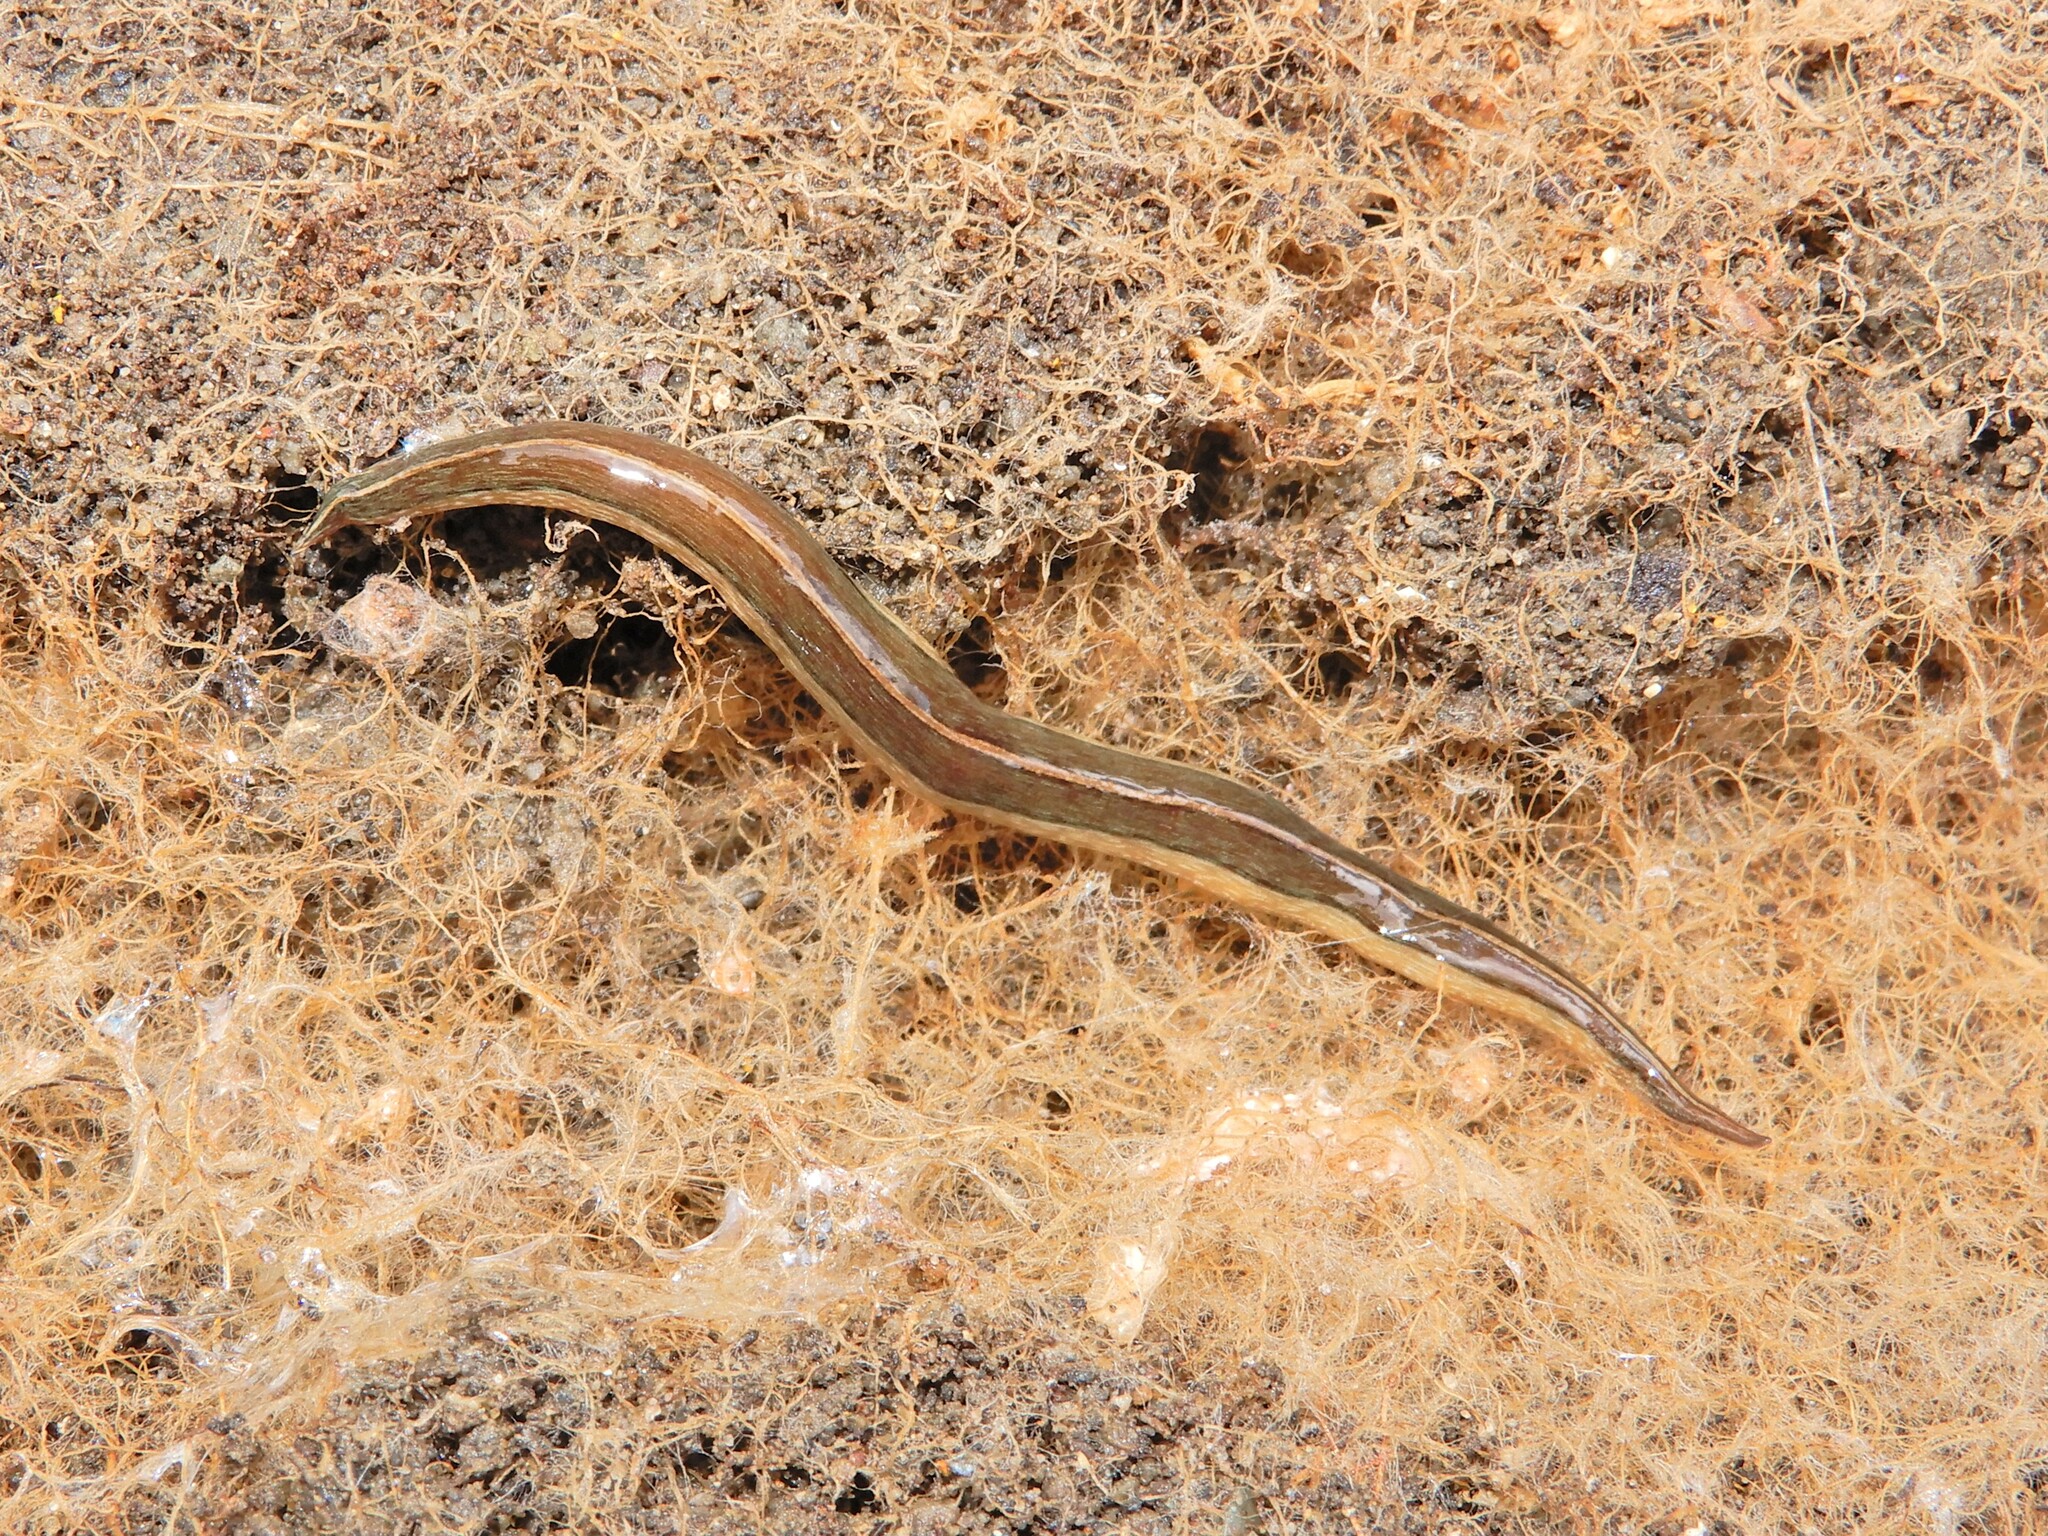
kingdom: Animalia
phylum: Platyhelminthes
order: Tricladida
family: Geoplanidae
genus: Newzealandia
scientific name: Newzealandia graffii
